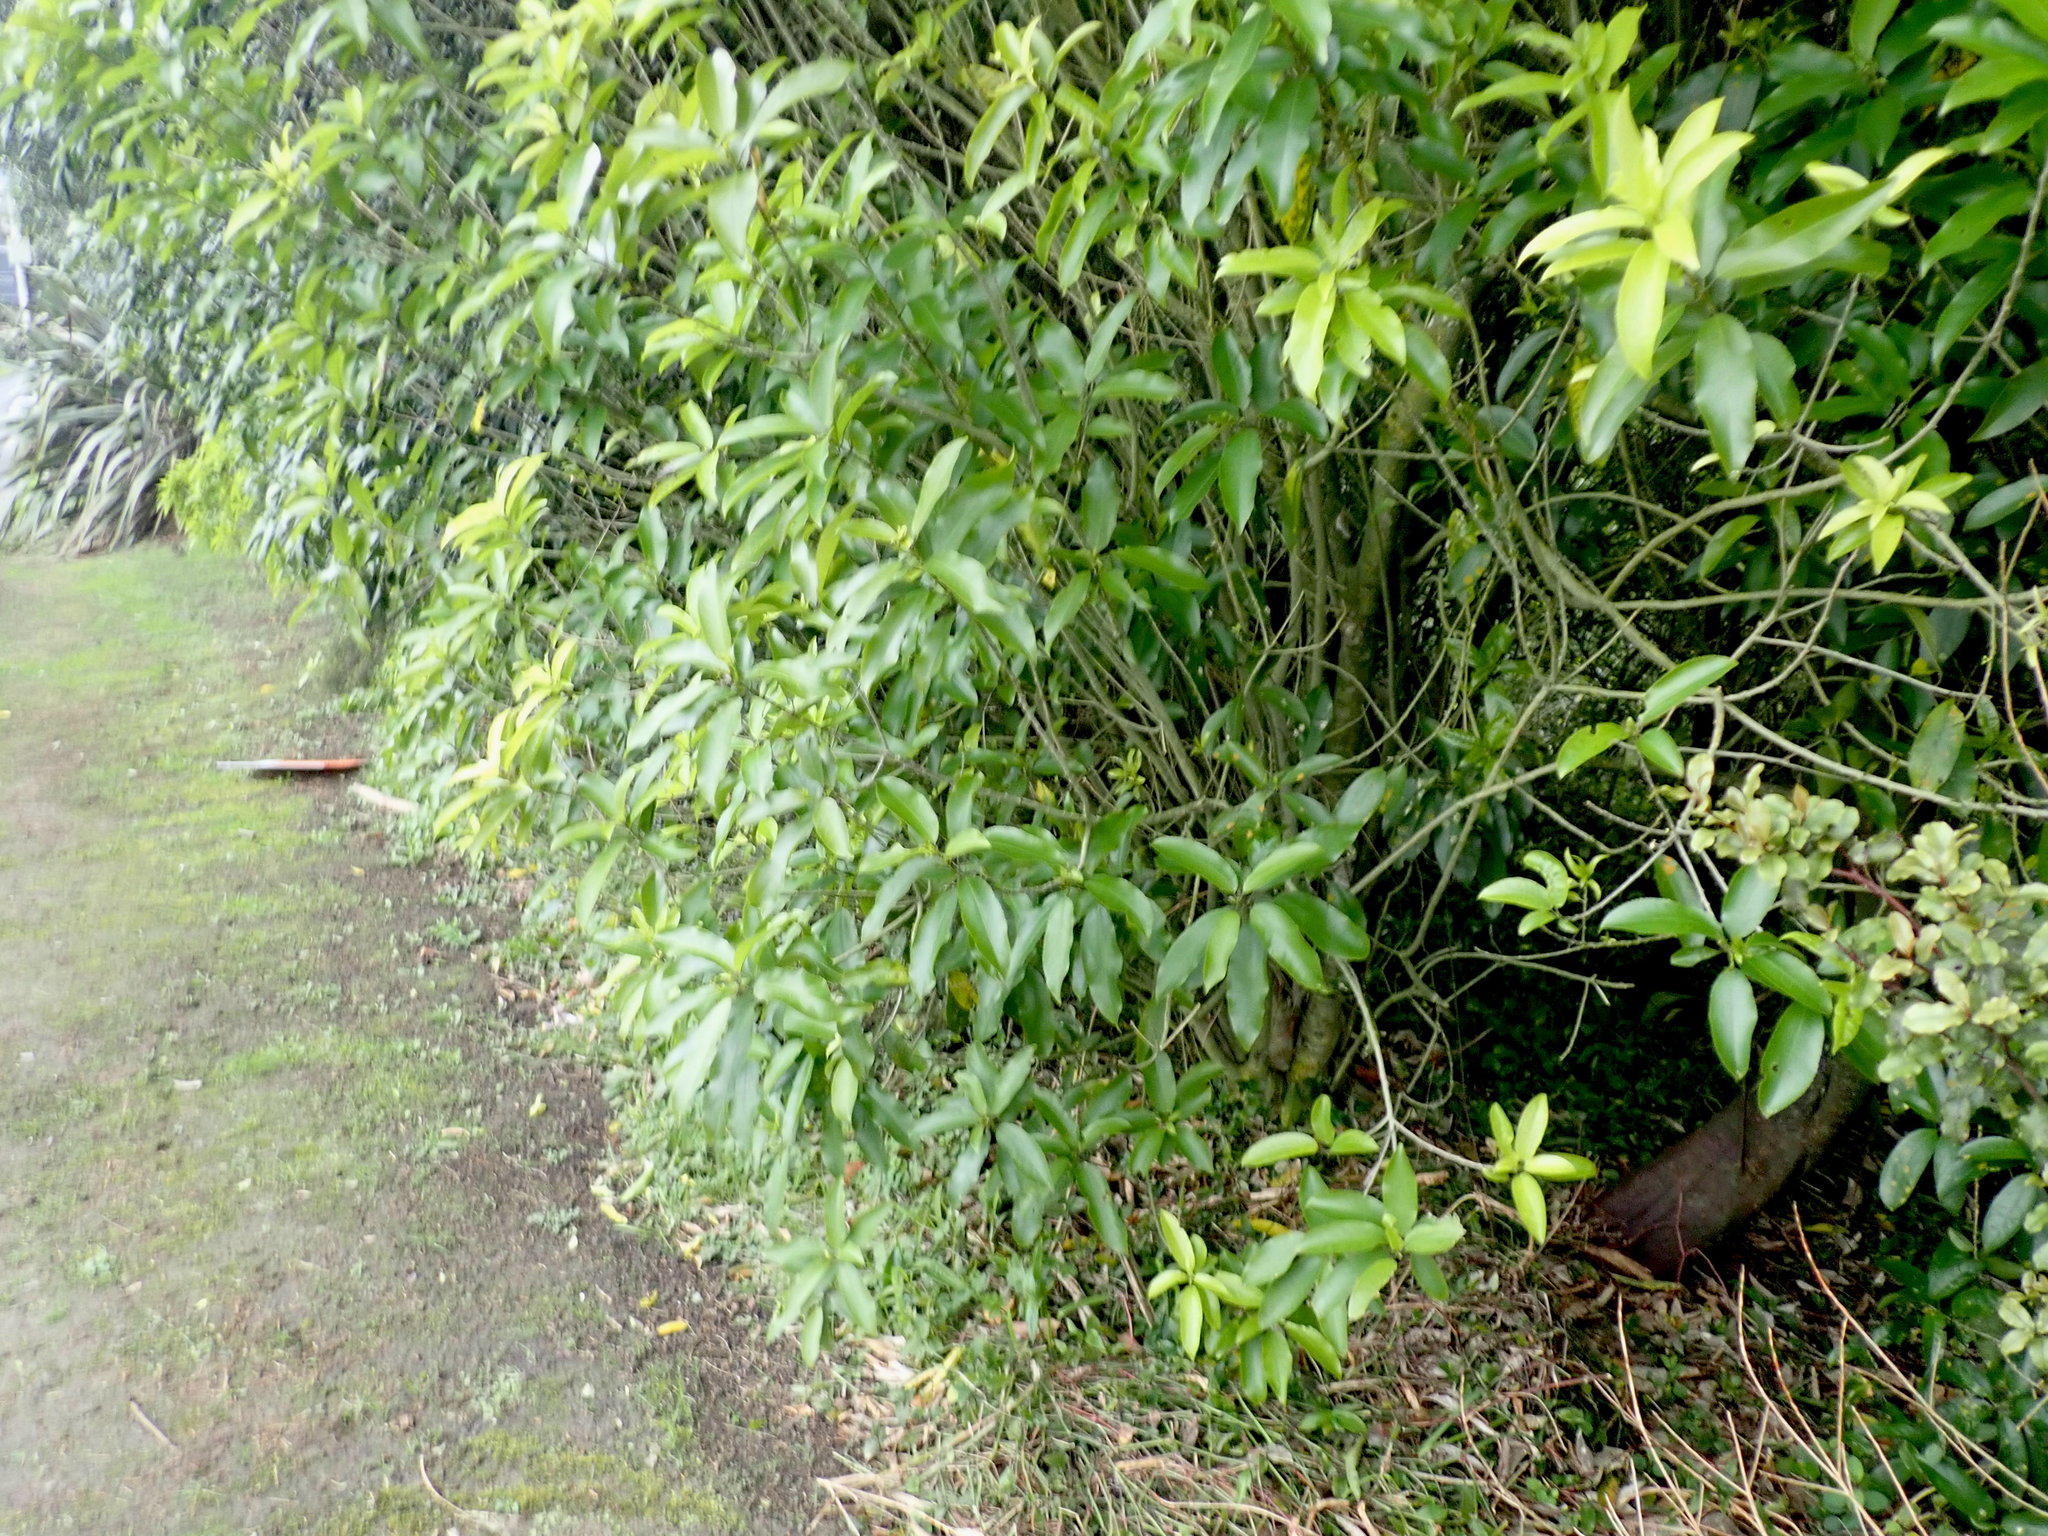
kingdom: Plantae
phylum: Tracheophyta
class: Magnoliopsida
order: Malpighiales
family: Violaceae
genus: Melicytus
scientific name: Melicytus ramiflorus
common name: Mahoe
